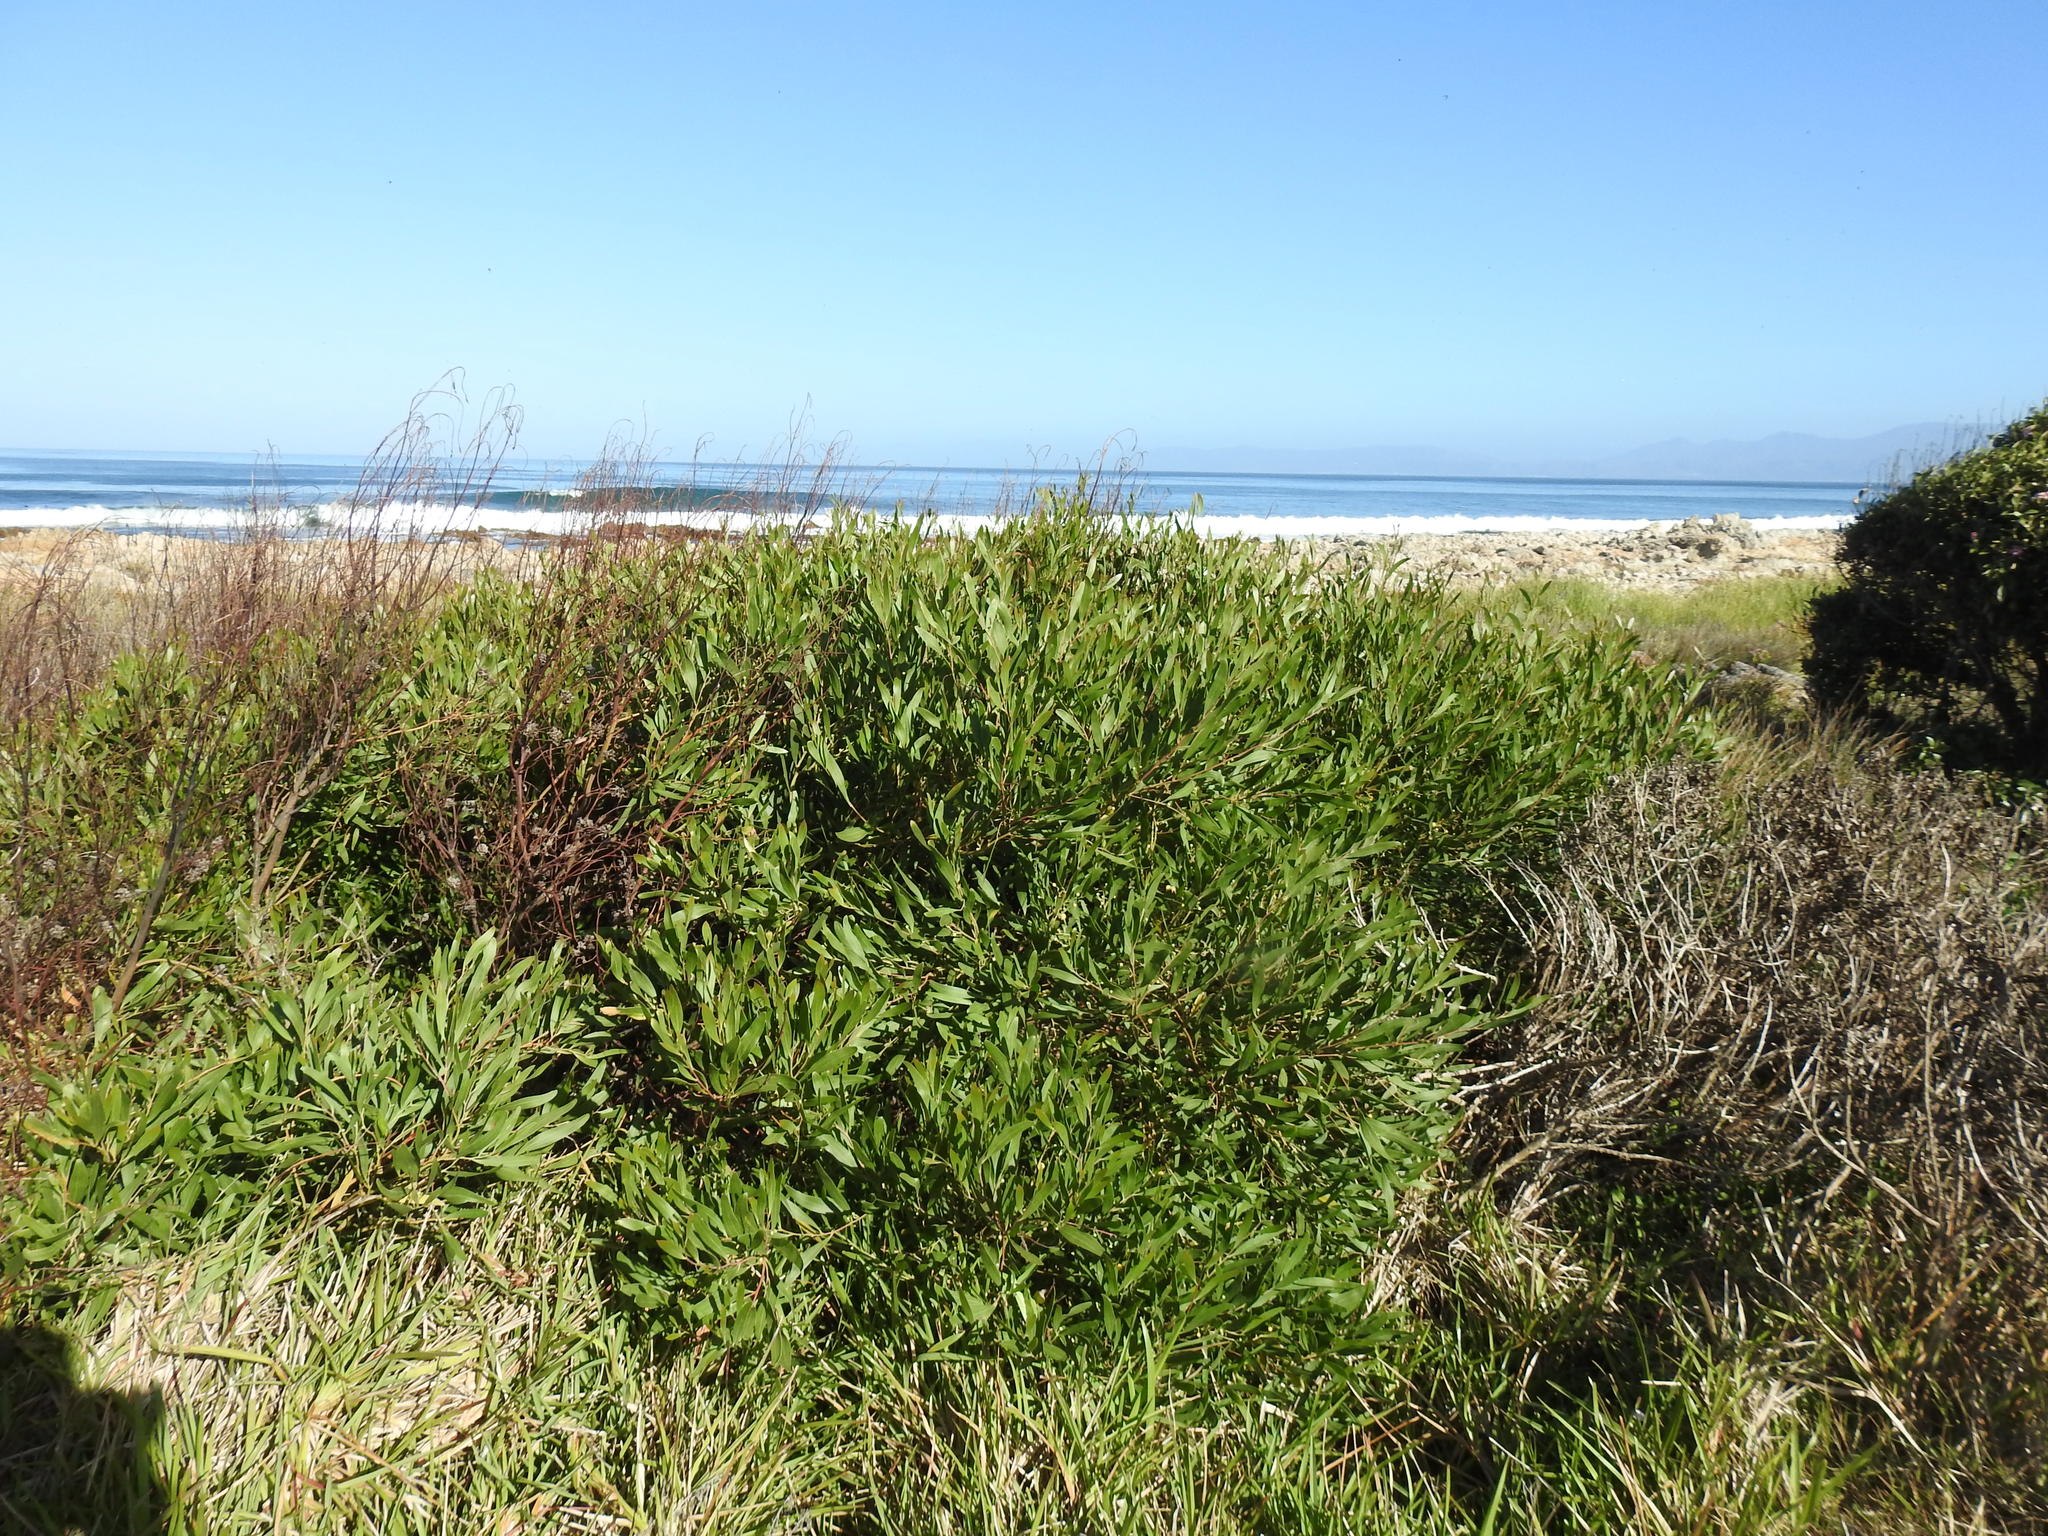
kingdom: Plantae
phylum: Tracheophyta
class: Magnoliopsida
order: Fabales
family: Fabaceae
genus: Acacia
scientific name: Acacia cyclops
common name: Coastal wattle
